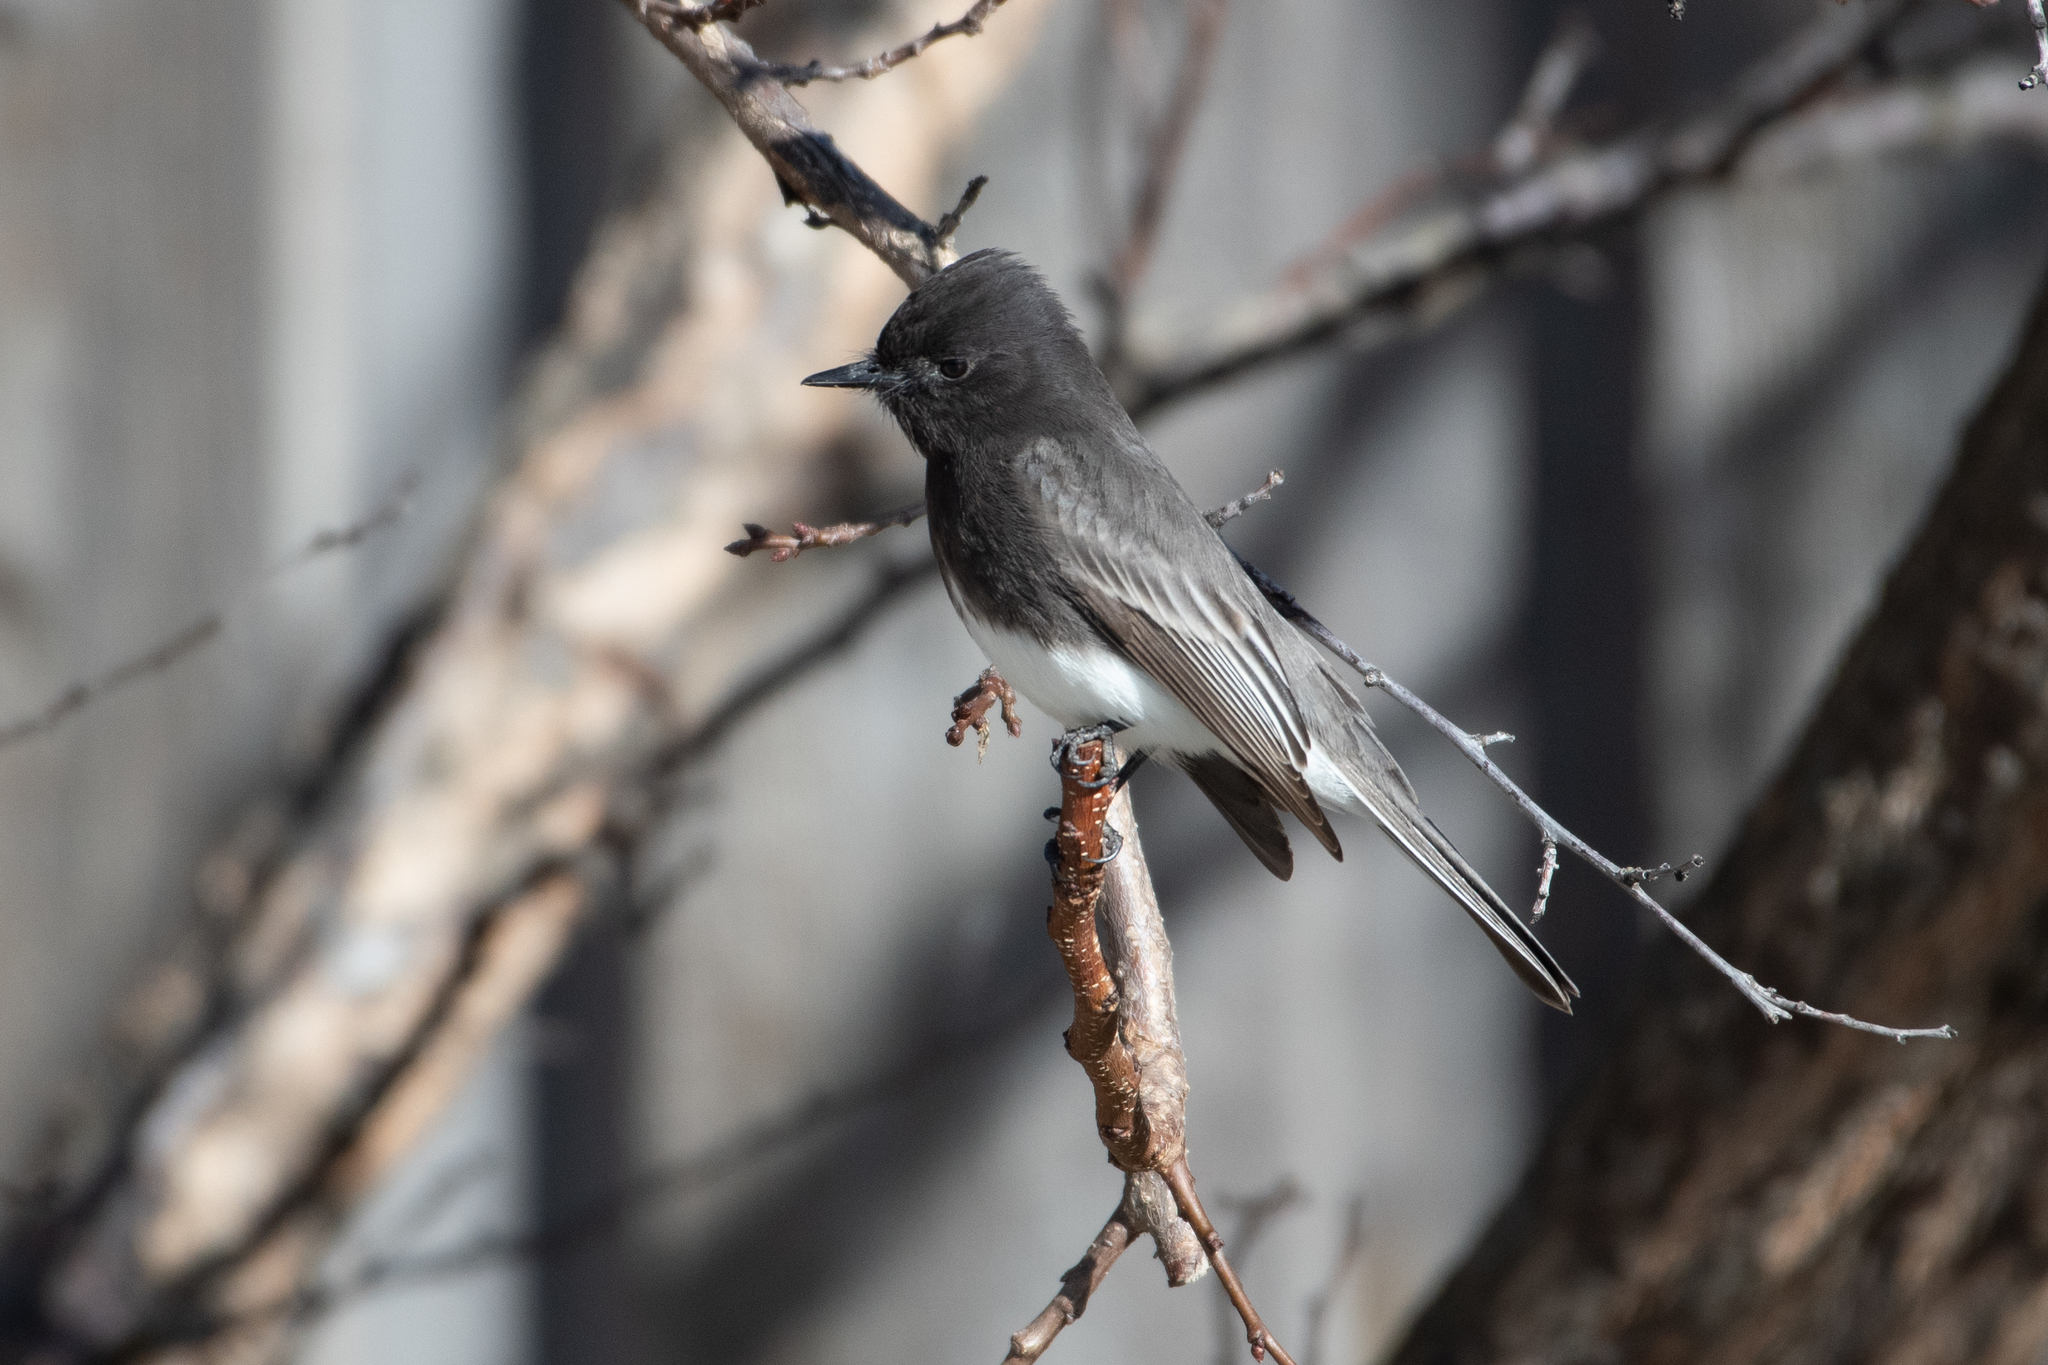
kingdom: Animalia
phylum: Chordata
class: Aves
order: Passeriformes
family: Tyrannidae
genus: Sayornis
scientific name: Sayornis nigricans
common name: Black phoebe
